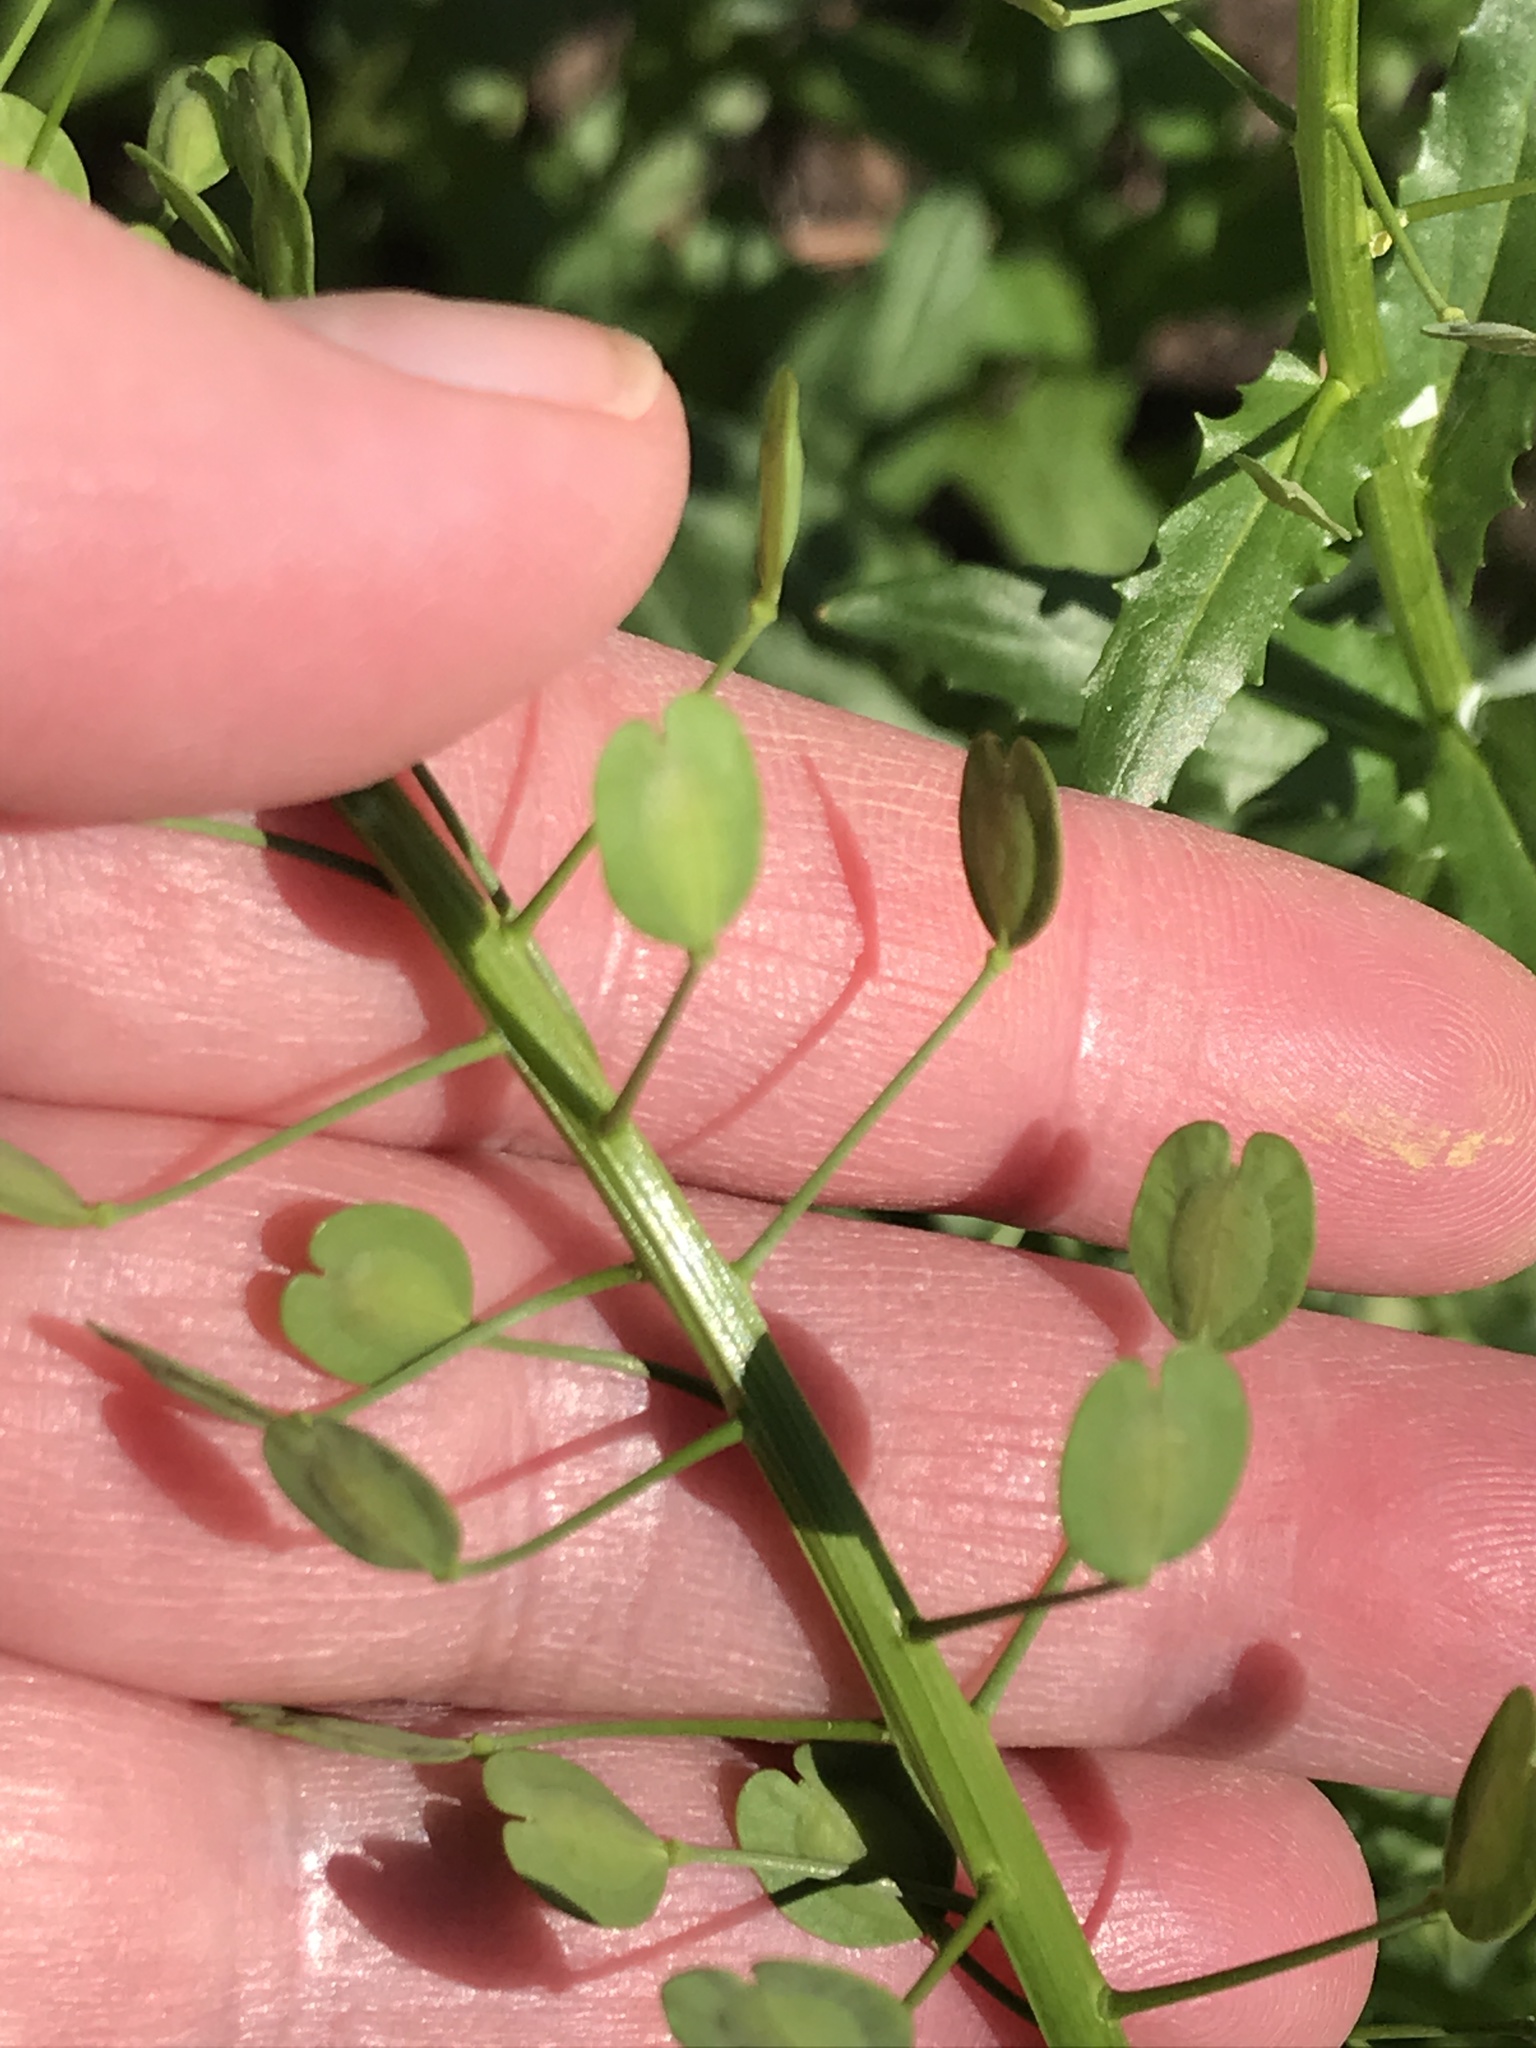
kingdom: Plantae
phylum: Tracheophyta
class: Magnoliopsida
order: Brassicales
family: Brassicaceae
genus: Thlaspi
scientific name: Thlaspi arvense
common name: Field pennycress
